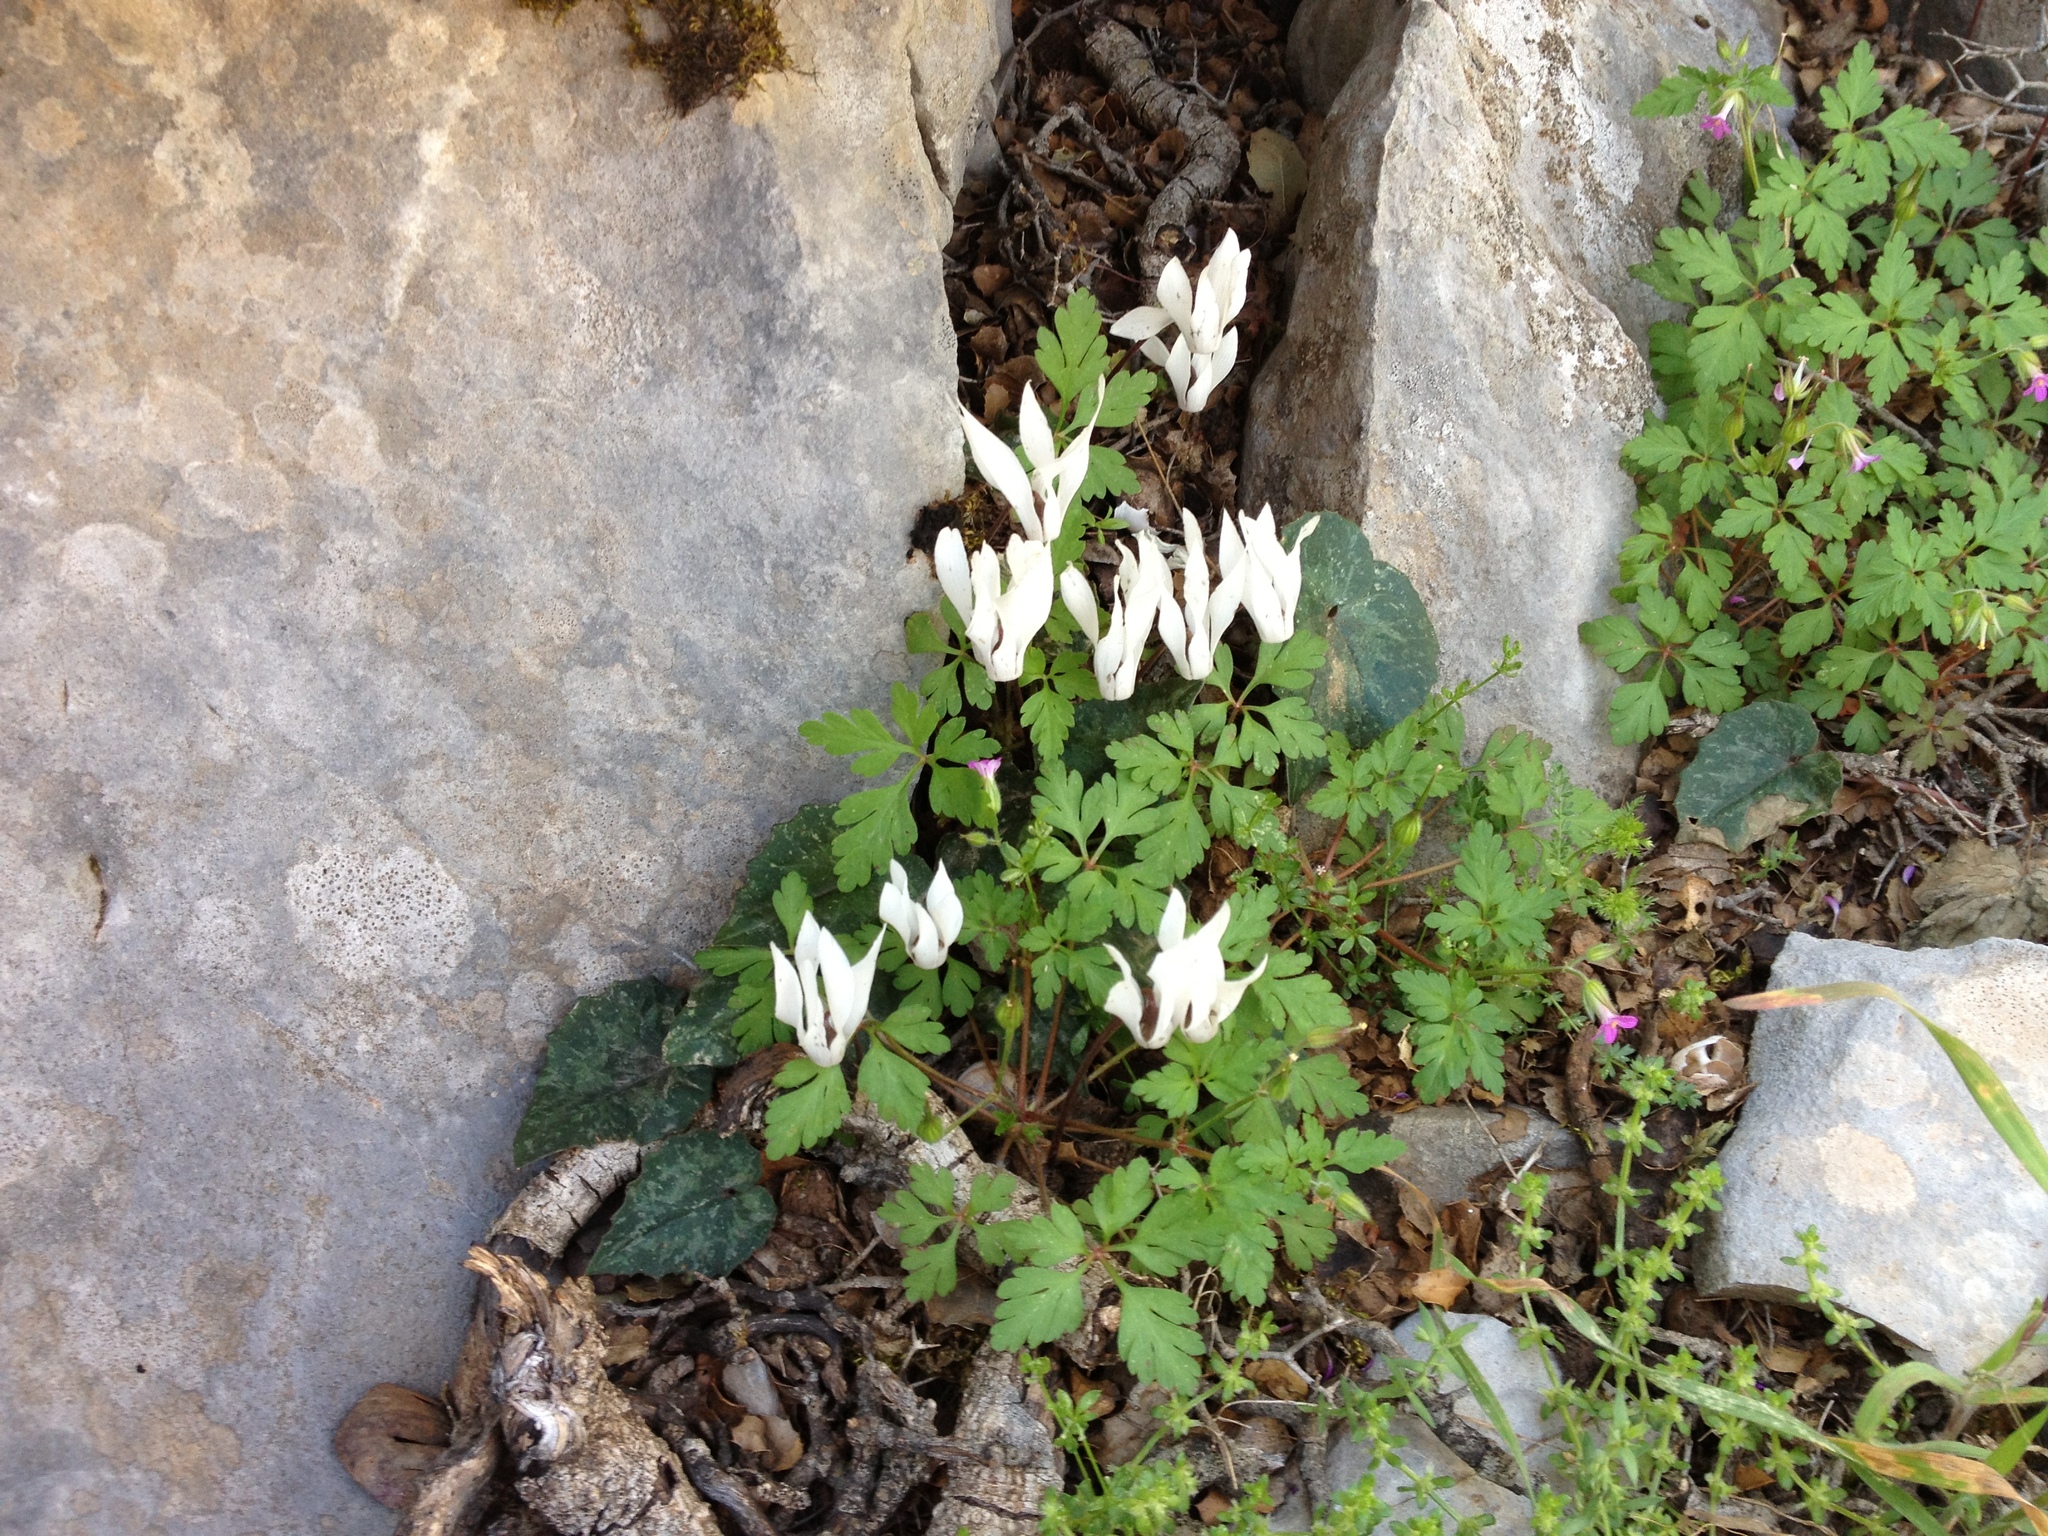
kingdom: Plantae
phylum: Tracheophyta
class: Magnoliopsida
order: Ericales
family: Primulaceae
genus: Cyclamen
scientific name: Cyclamen creticum
